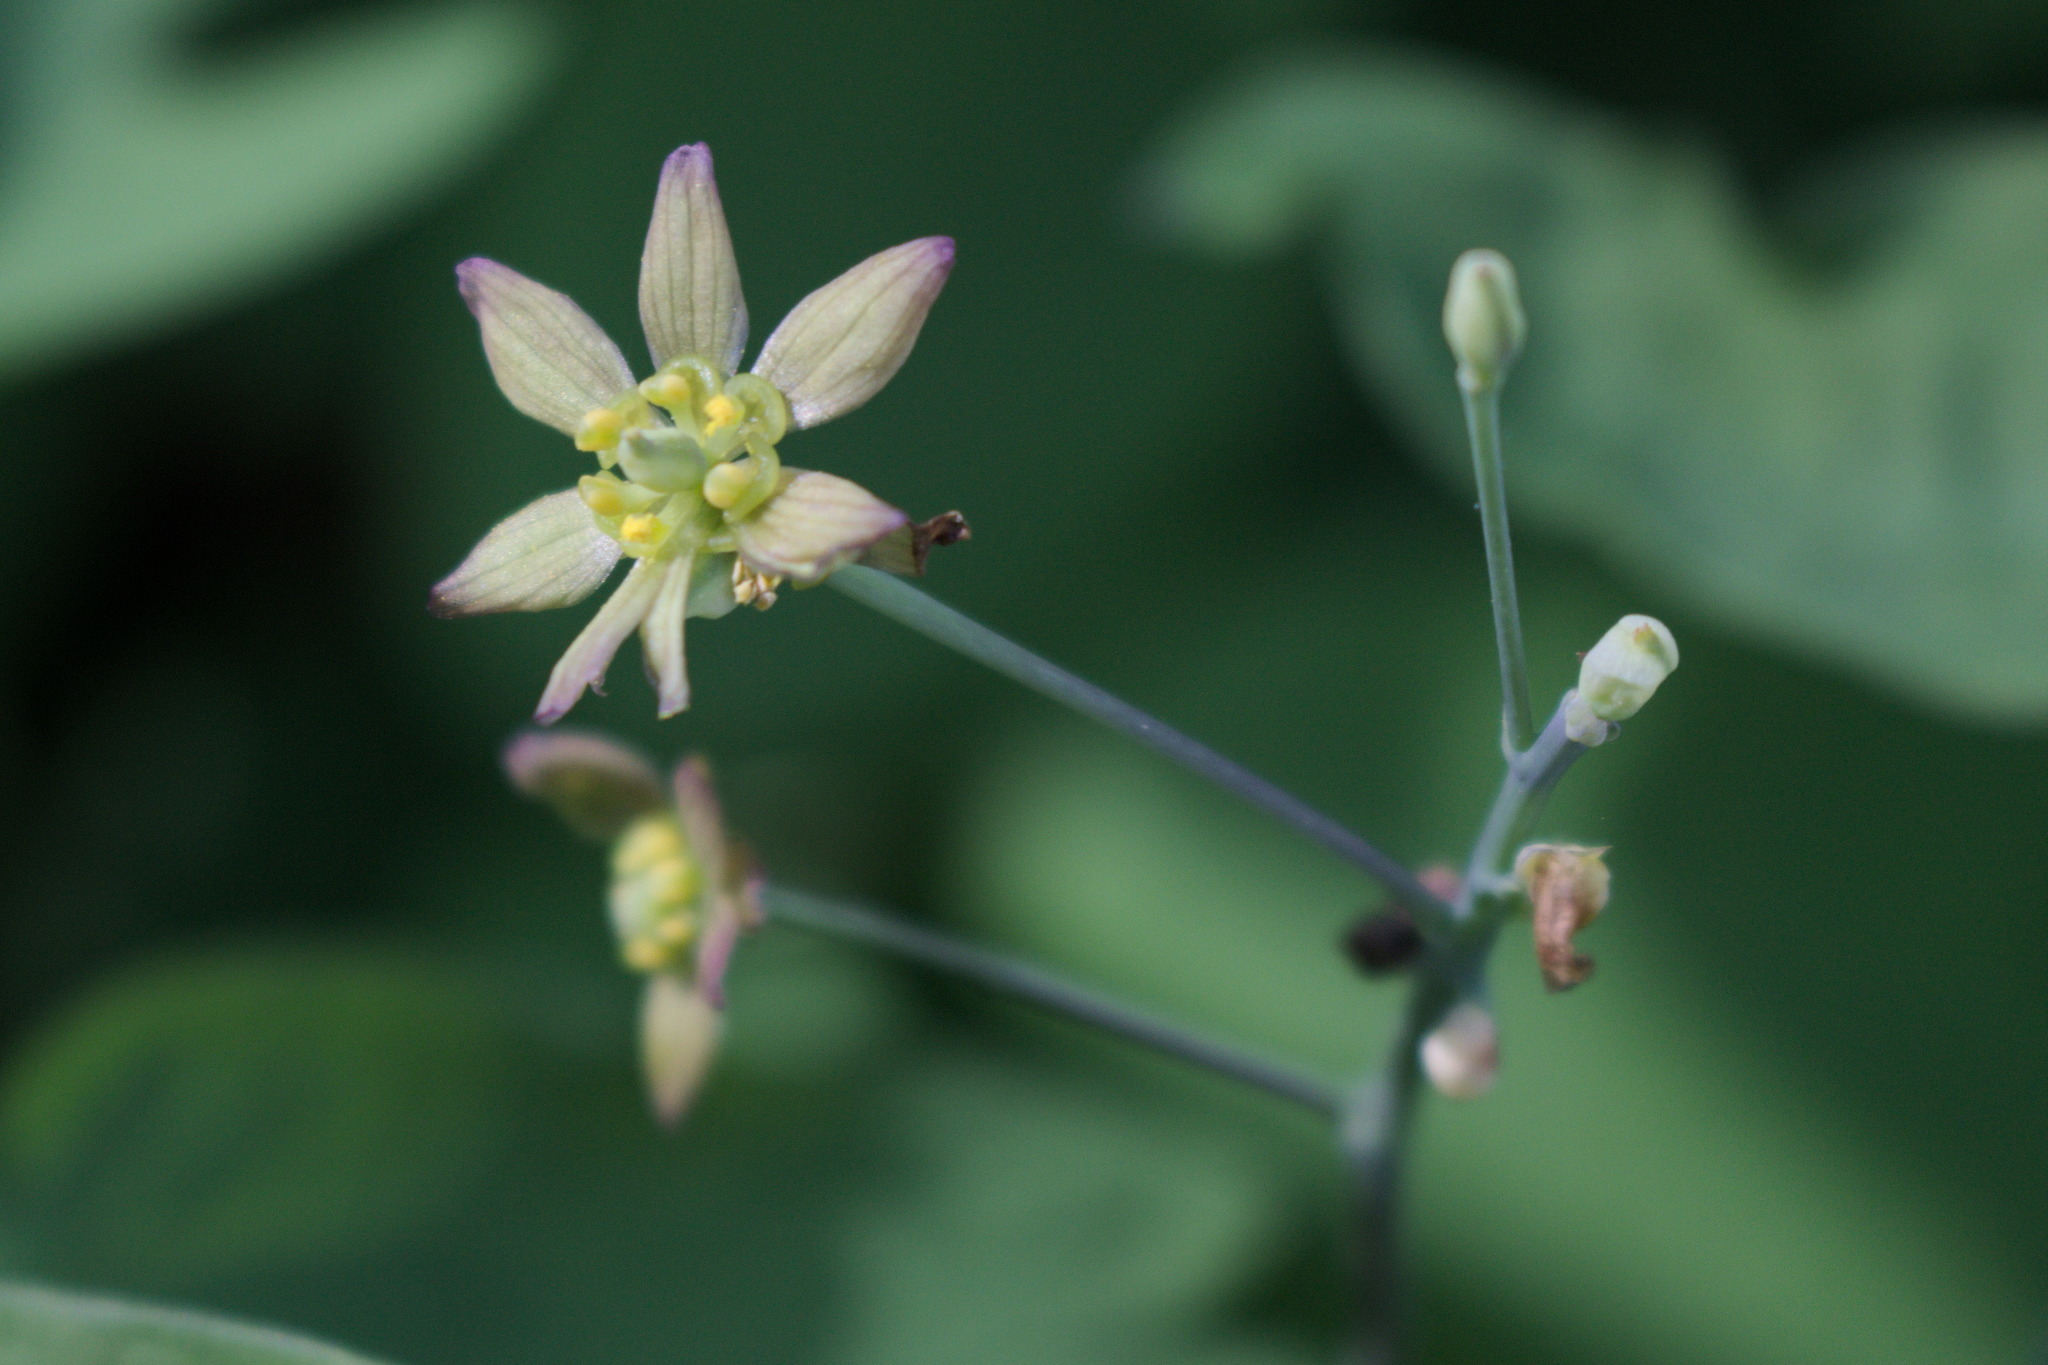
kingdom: Plantae
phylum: Tracheophyta
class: Magnoliopsida
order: Ranunculales
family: Berberidaceae
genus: Caulophyllum
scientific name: Caulophyllum thalictroides
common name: Blue cohosh
